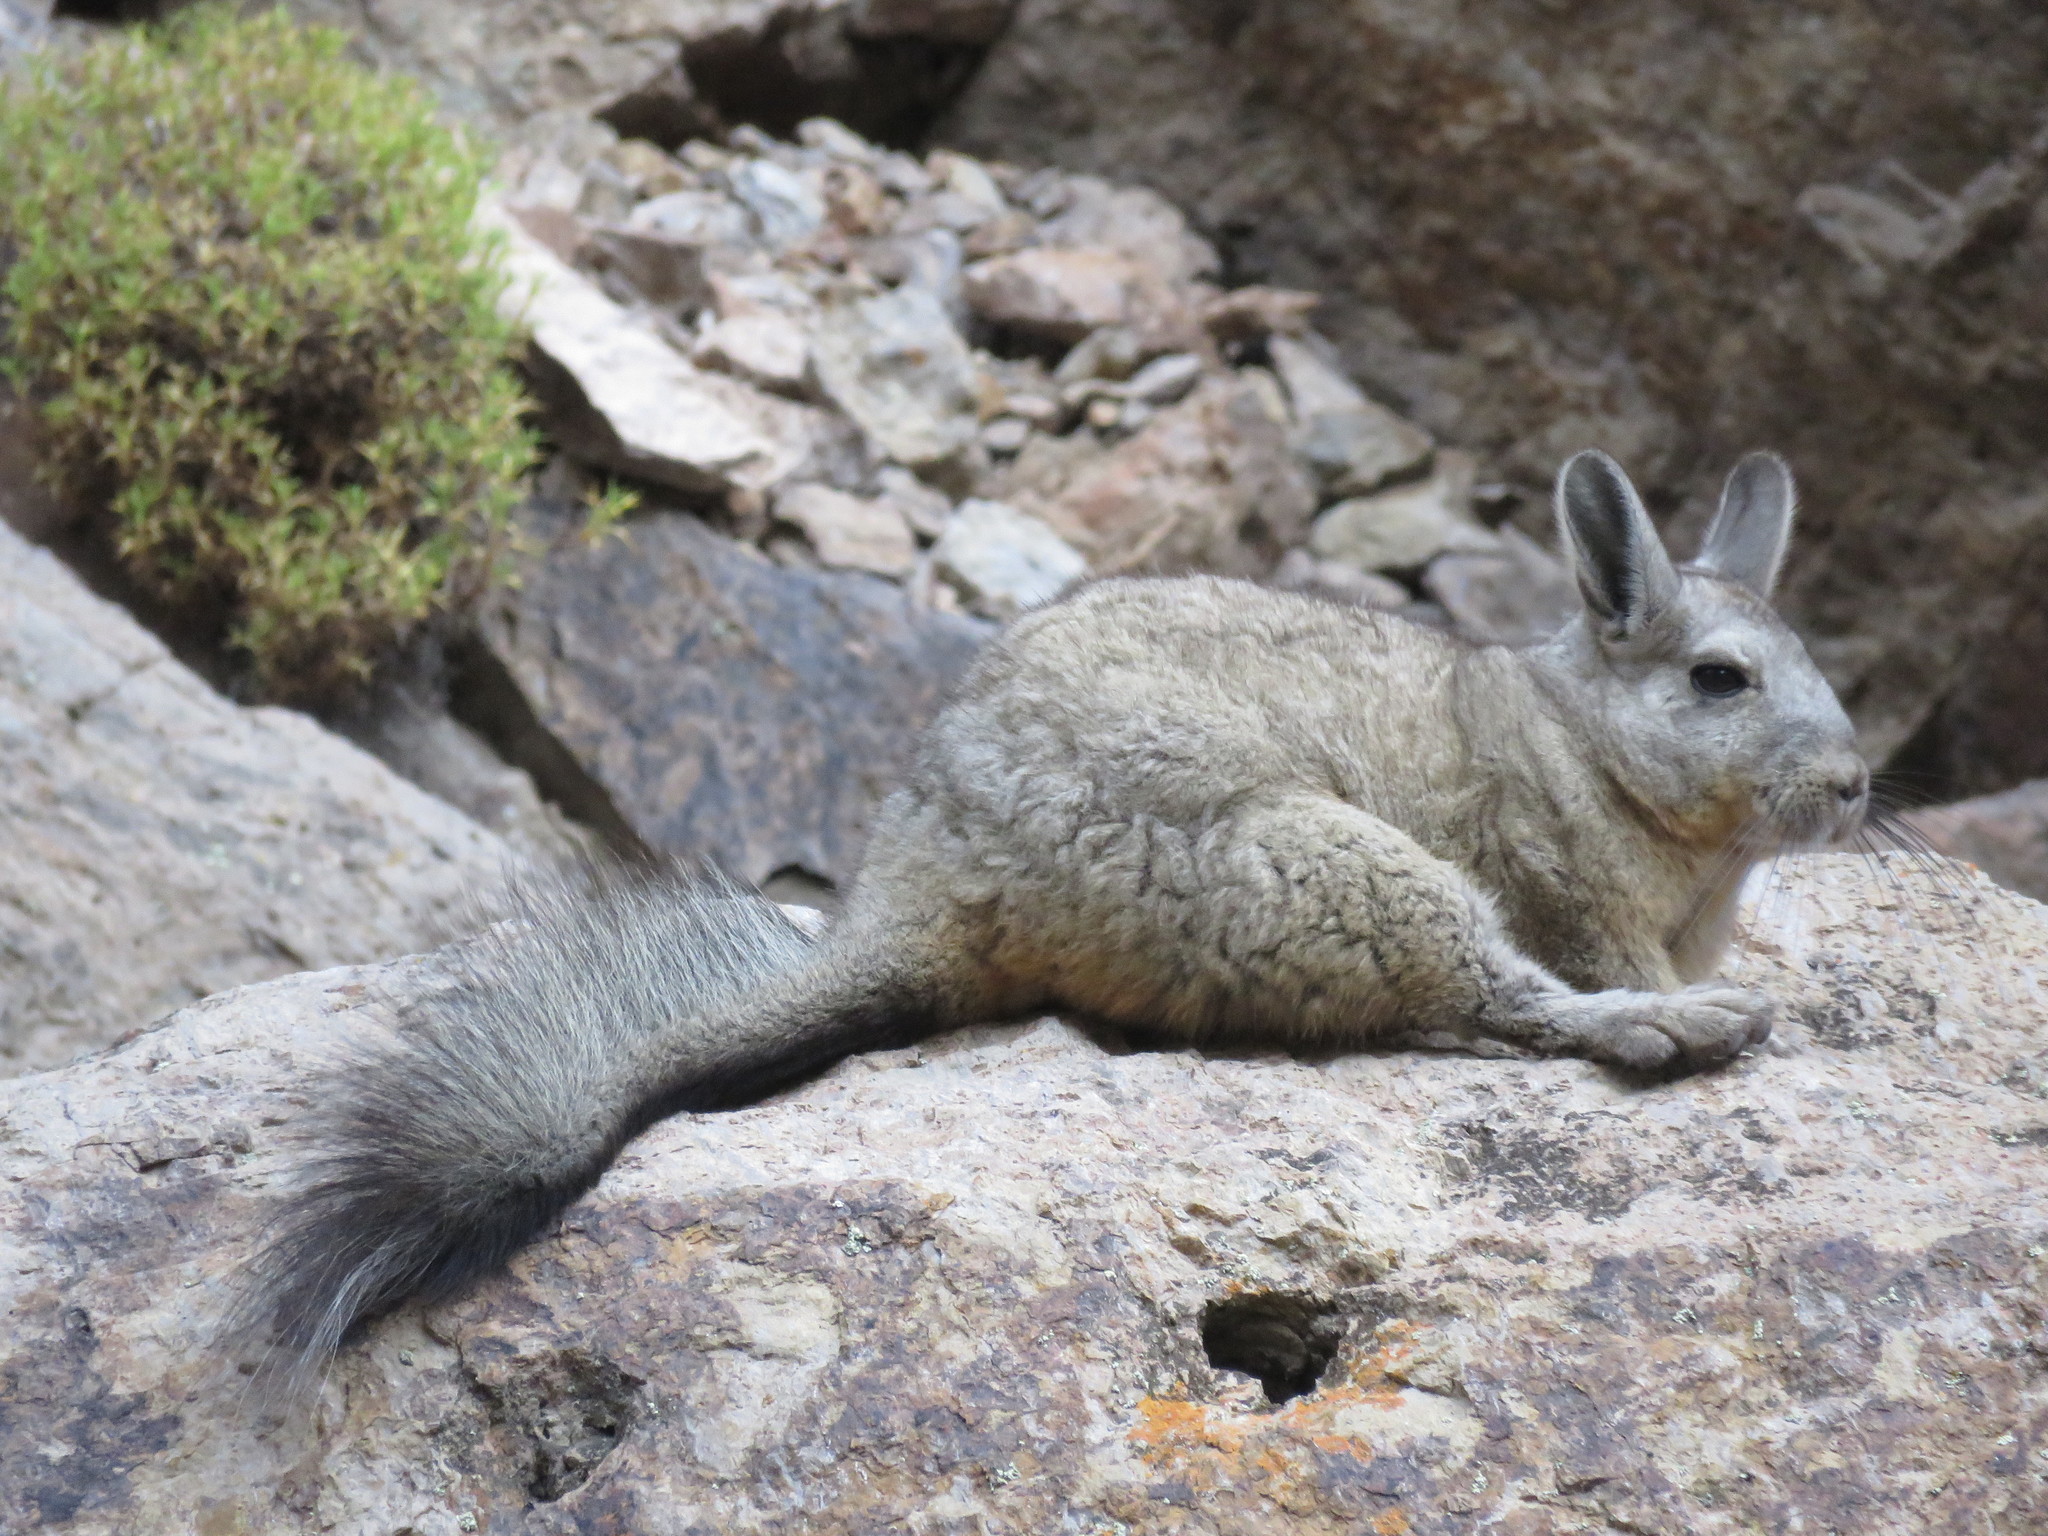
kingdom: Animalia
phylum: Chordata
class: Mammalia
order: Rodentia
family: Chinchillidae
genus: Lagidium
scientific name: Lagidium viscacia
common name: Southern viscacha
